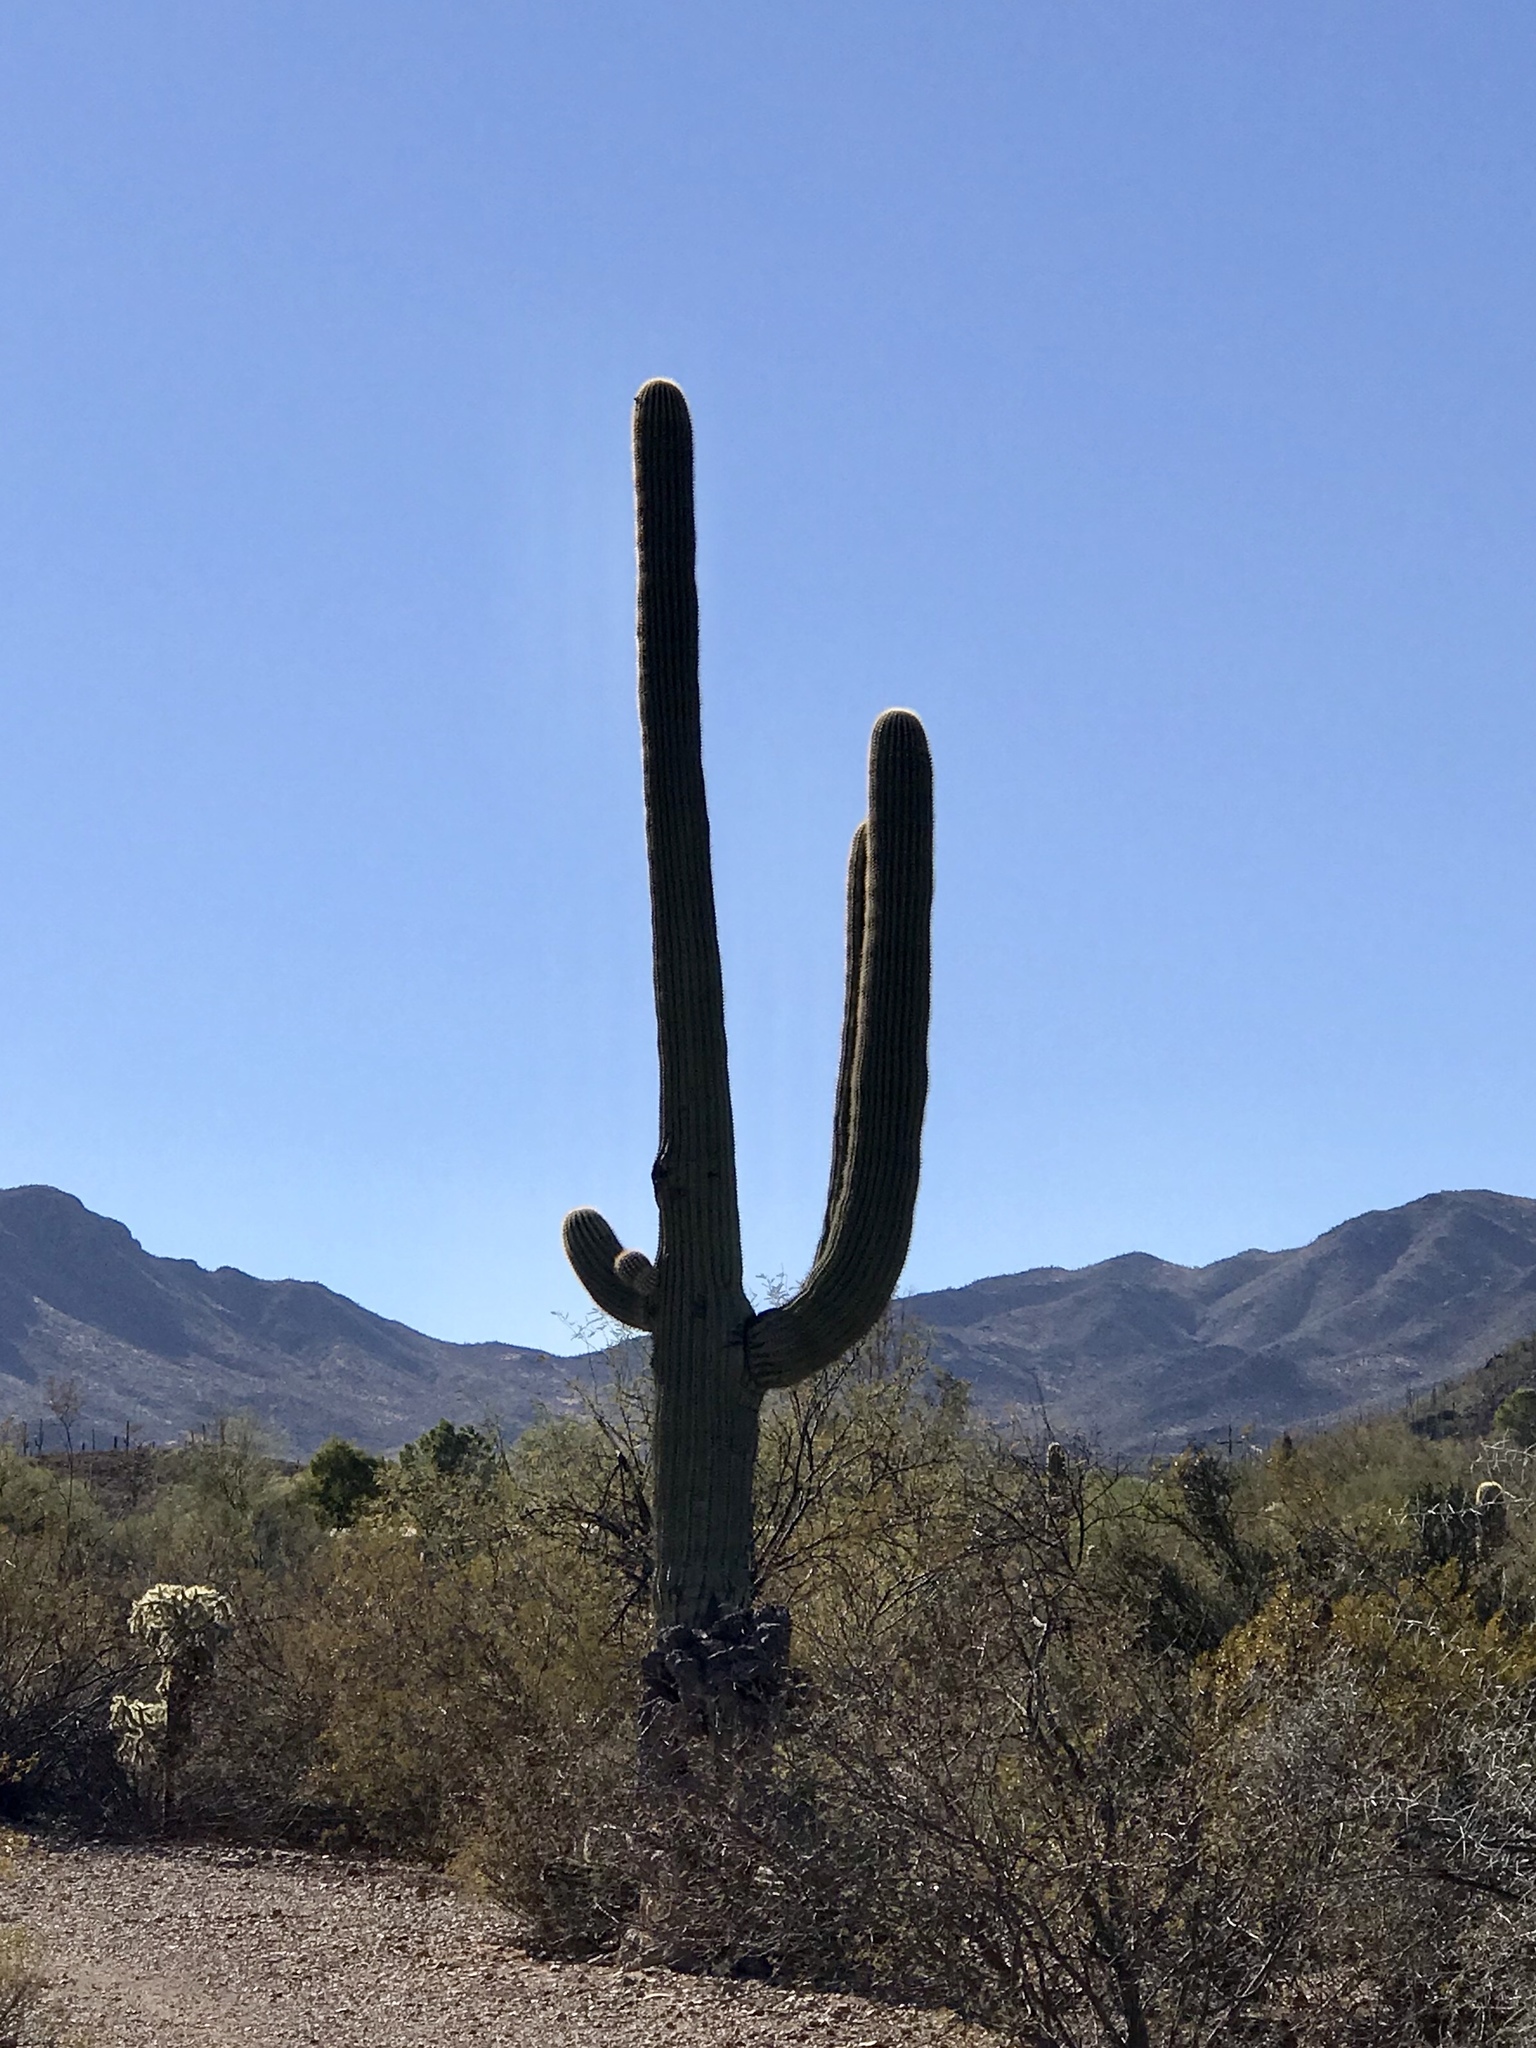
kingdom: Plantae
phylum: Tracheophyta
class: Magnoliopsida
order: Caryophyllales
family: Cactaceae
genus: Carnegiea
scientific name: Carnegiea gigantea
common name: Saguaro
